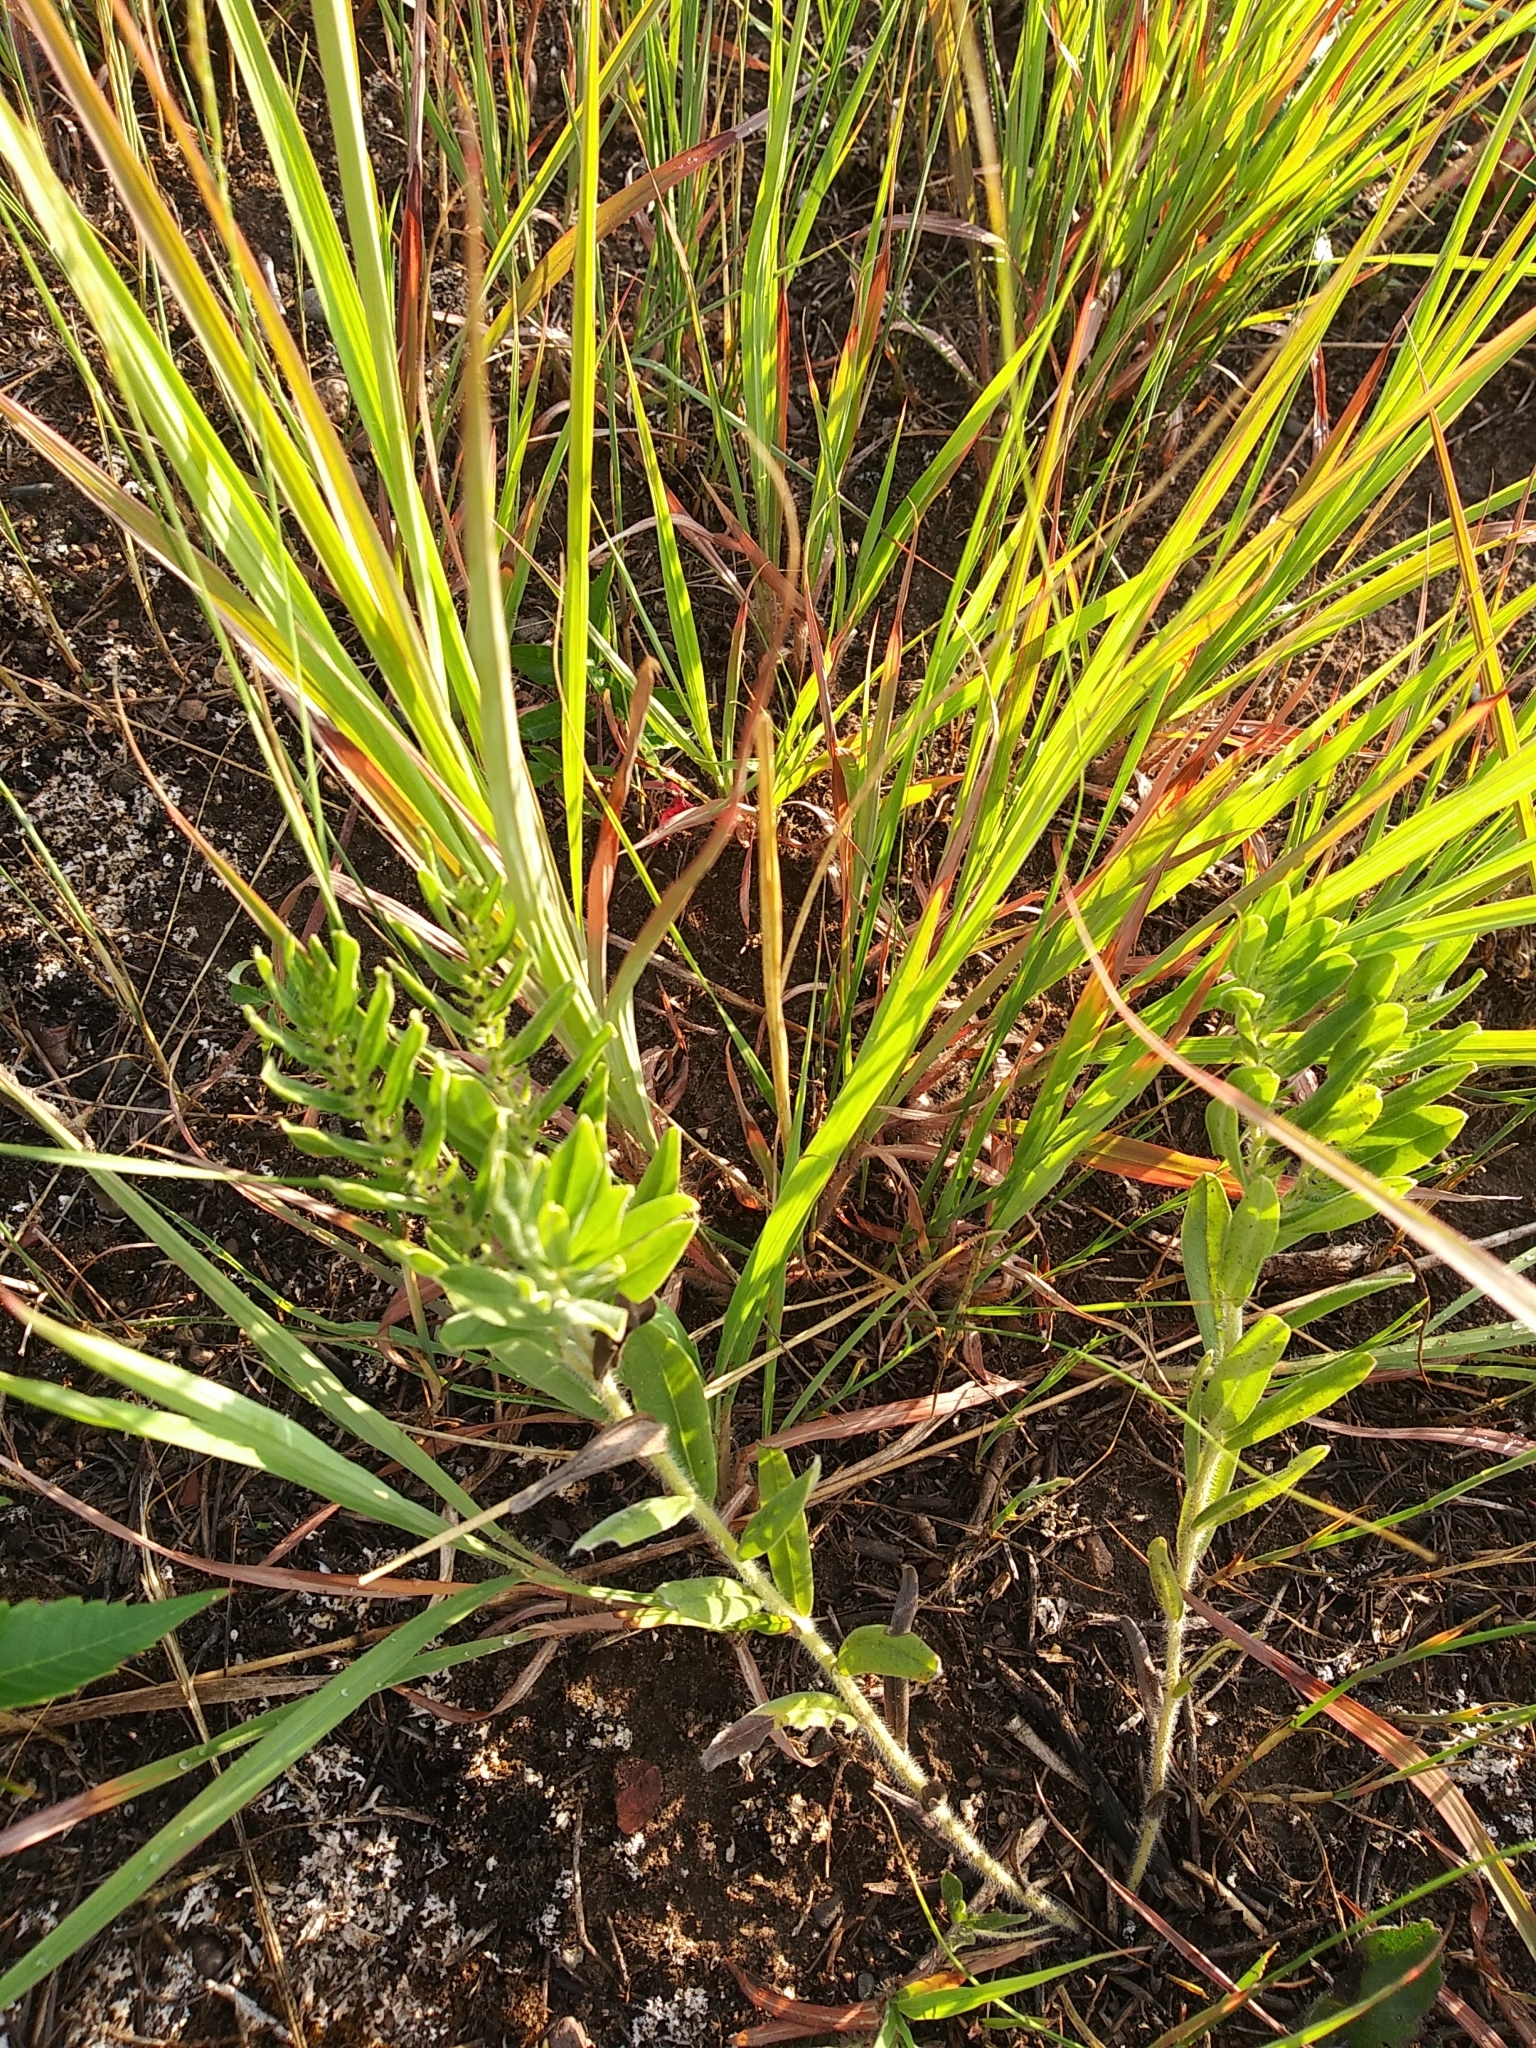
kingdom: Plantae
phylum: Tracheophyta
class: Magnoliopsida
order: Boraginales
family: Boraginaceae
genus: Lithospermum
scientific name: Lithospermum canescens
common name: Hoary puccoon
